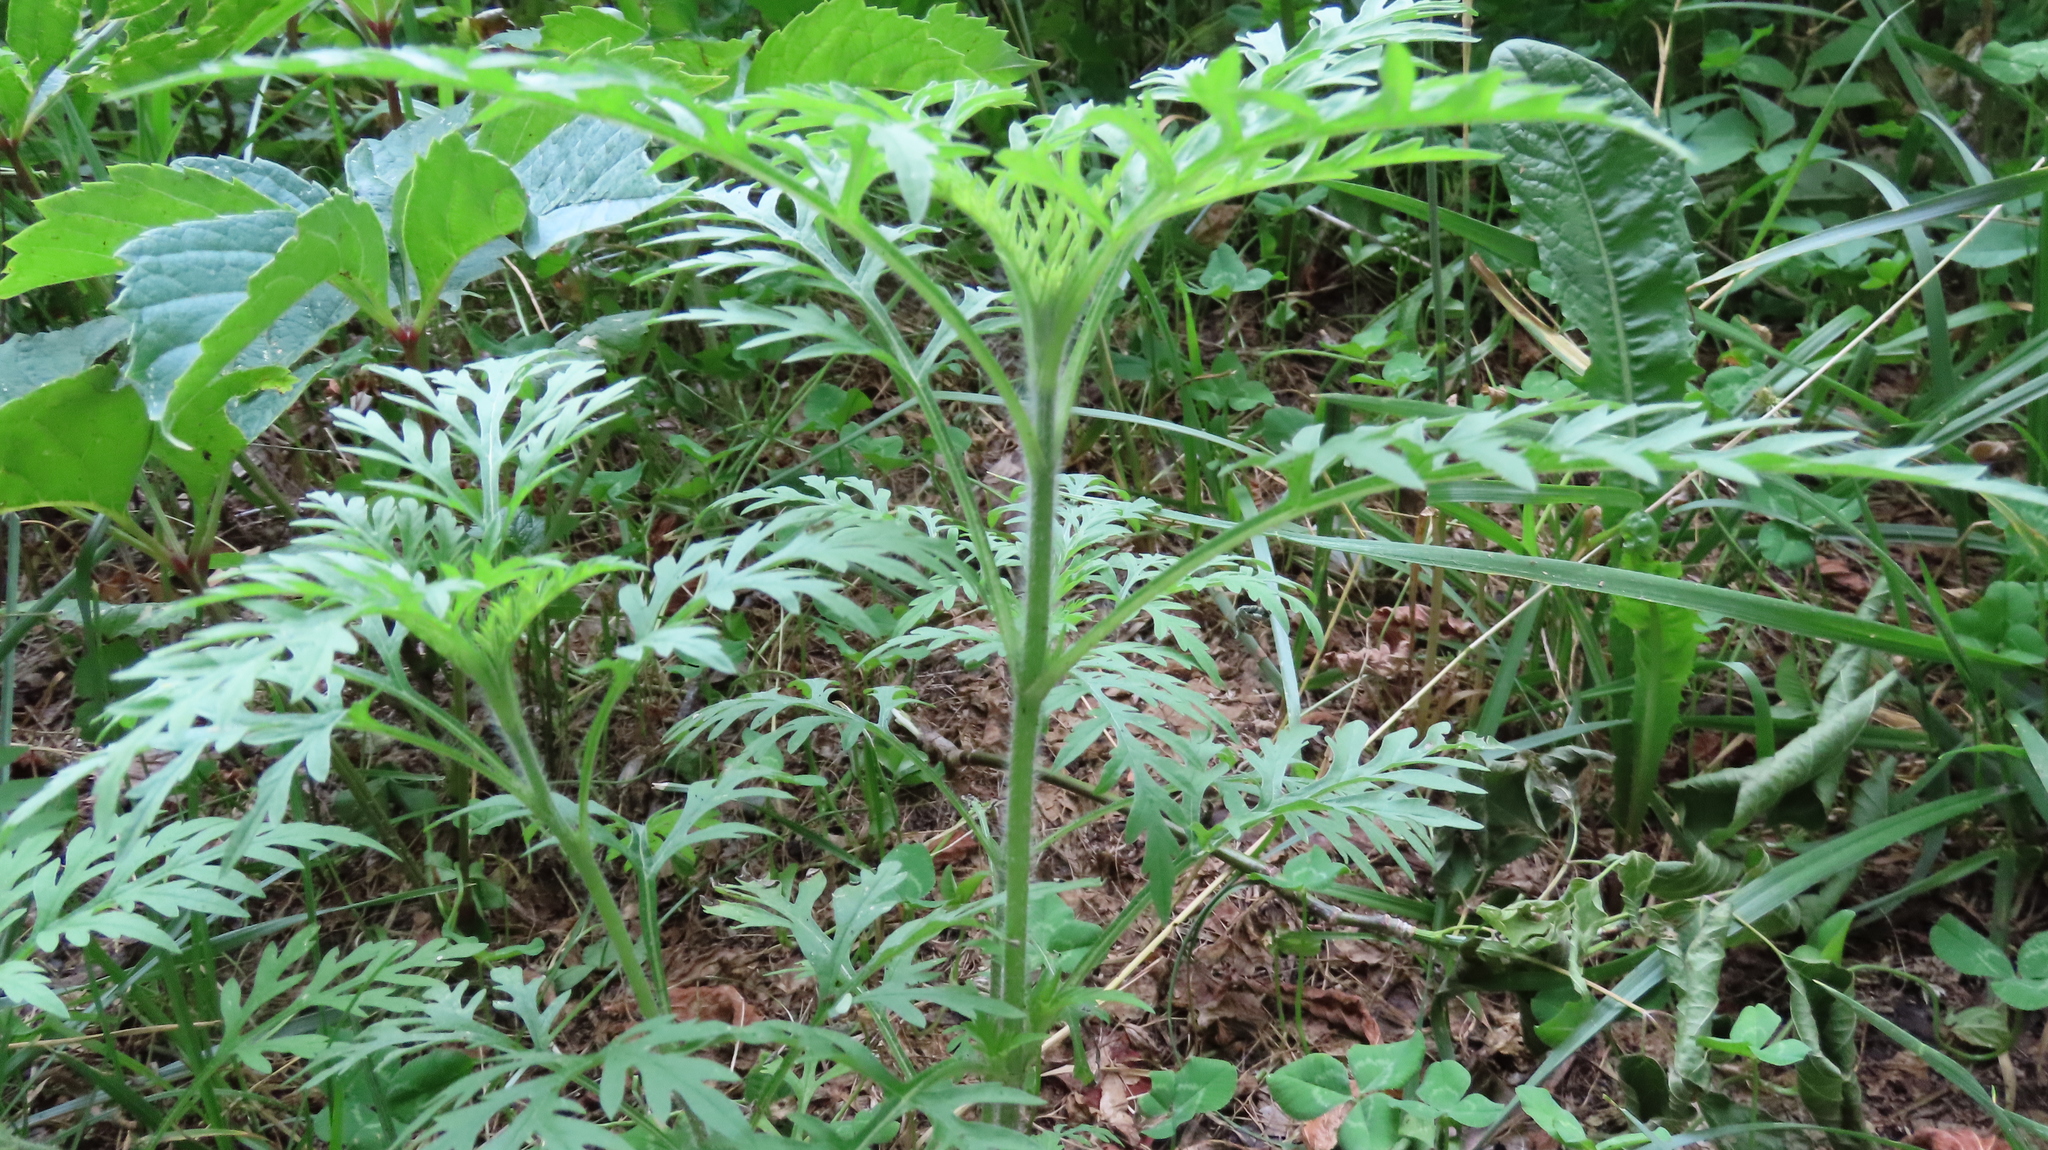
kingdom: Plantae
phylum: Tracheophyta
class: Magnoliopsida
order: Asterales
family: Asteraceae
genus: Ambrosia
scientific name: Ambrosia artemisiifolia
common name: Annual ragweed
